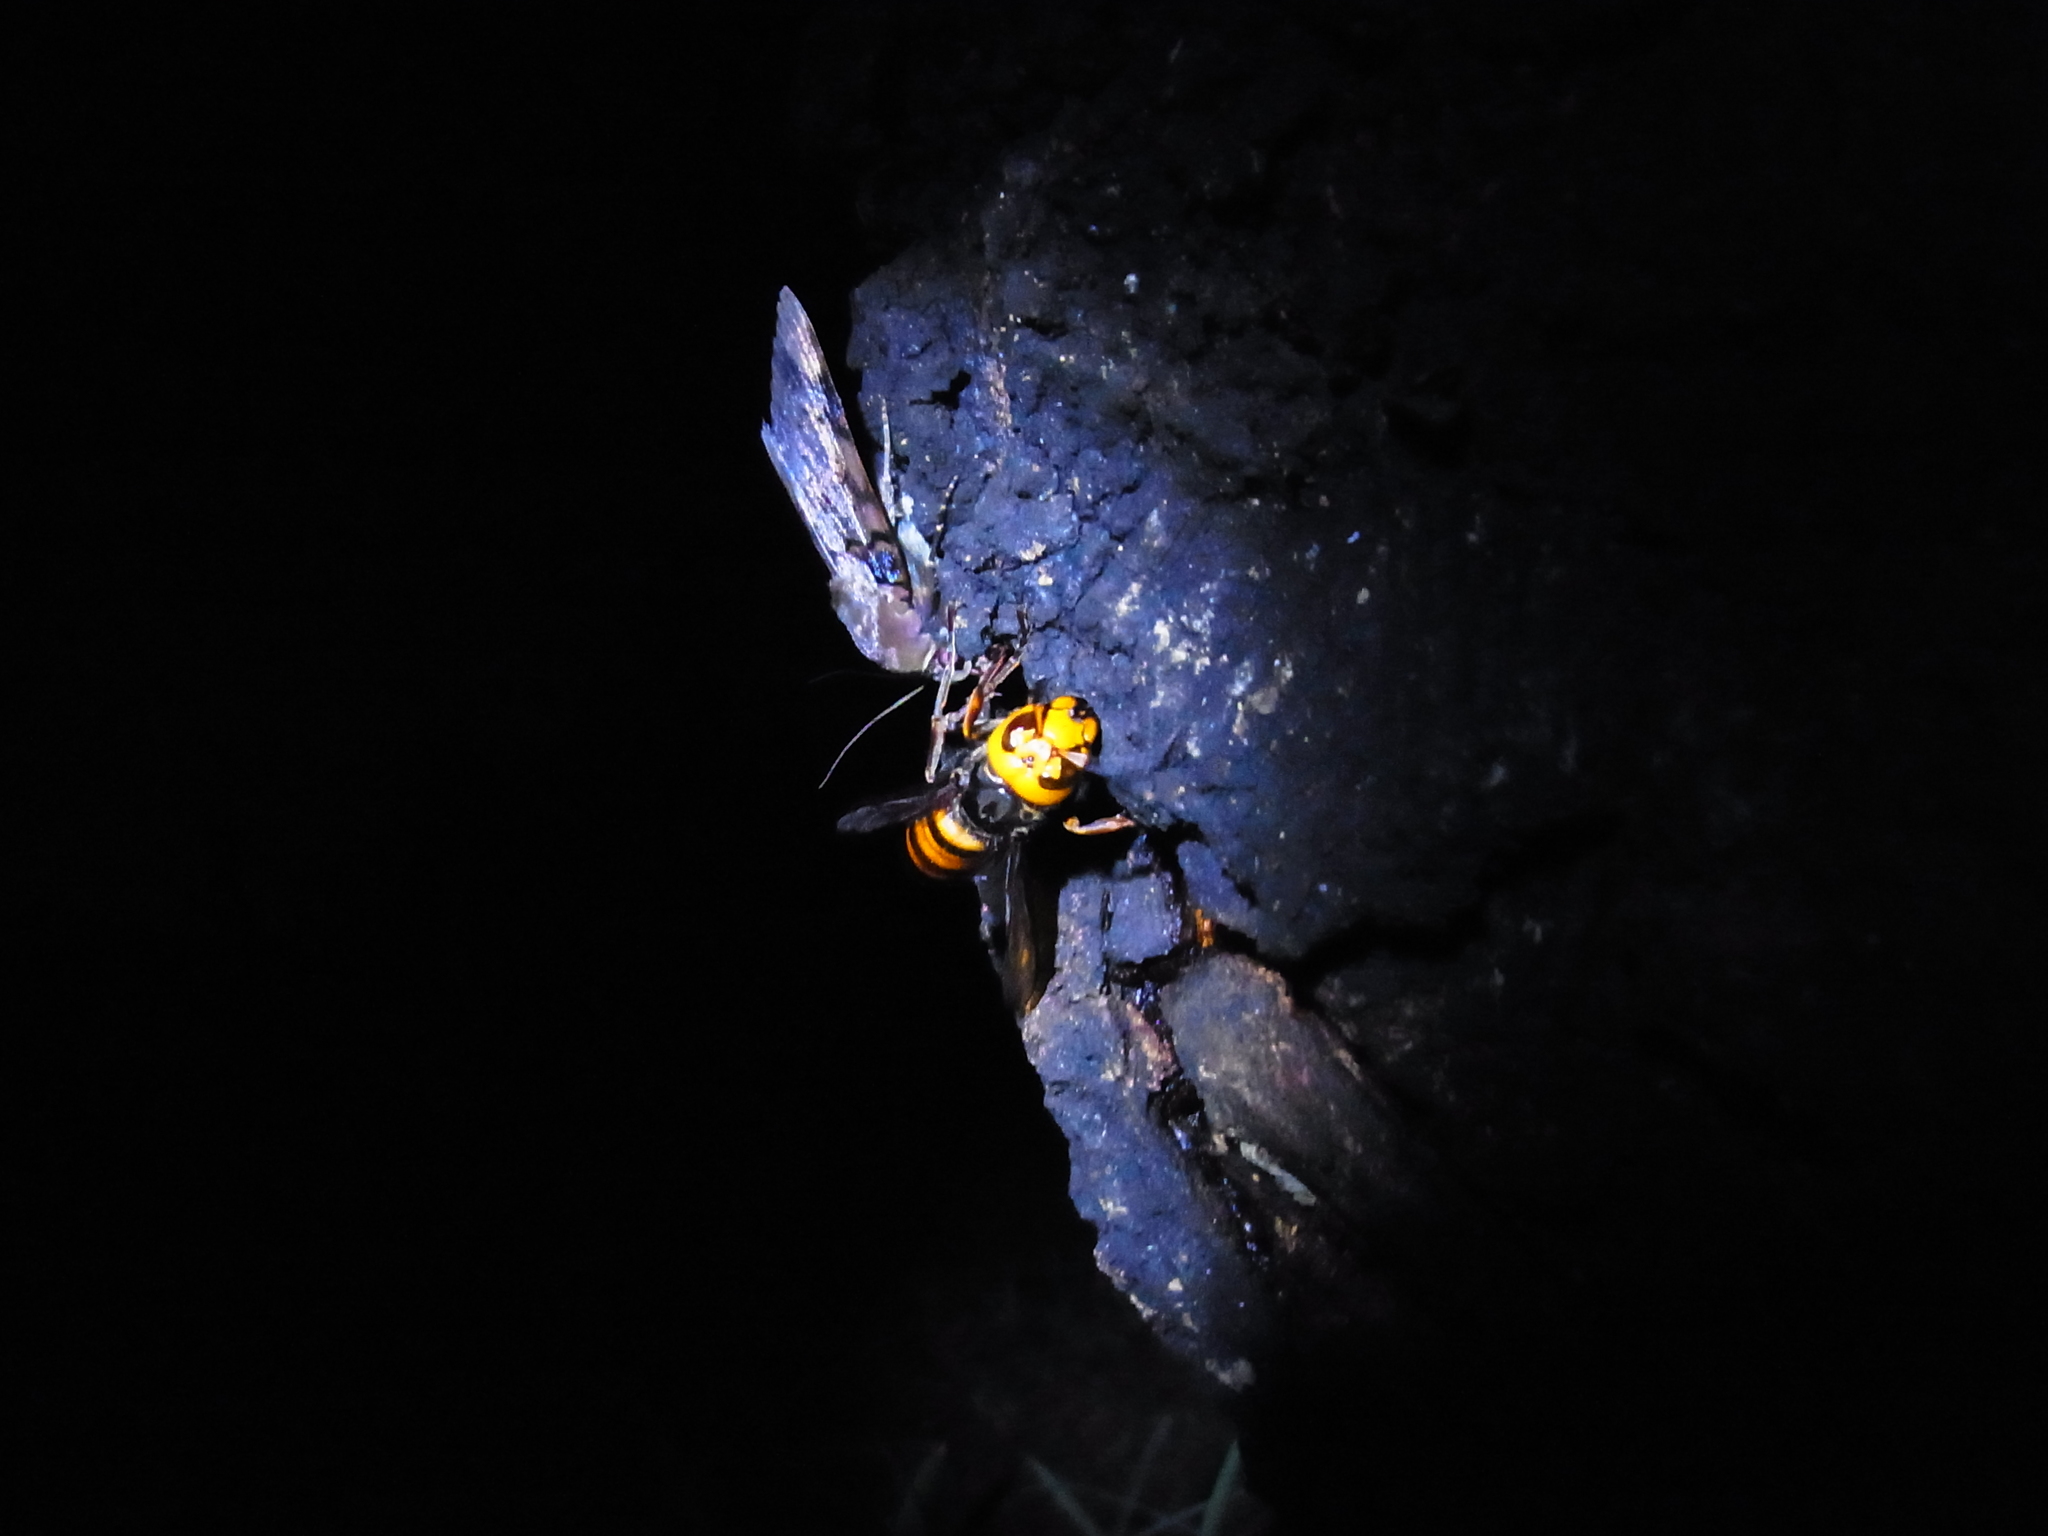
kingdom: Animalia
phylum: Arthropoda
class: Insecta
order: Hymenoptera
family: Vespidae
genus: Vespa
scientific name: Vespa mandarinia
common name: Asian giant hornet
